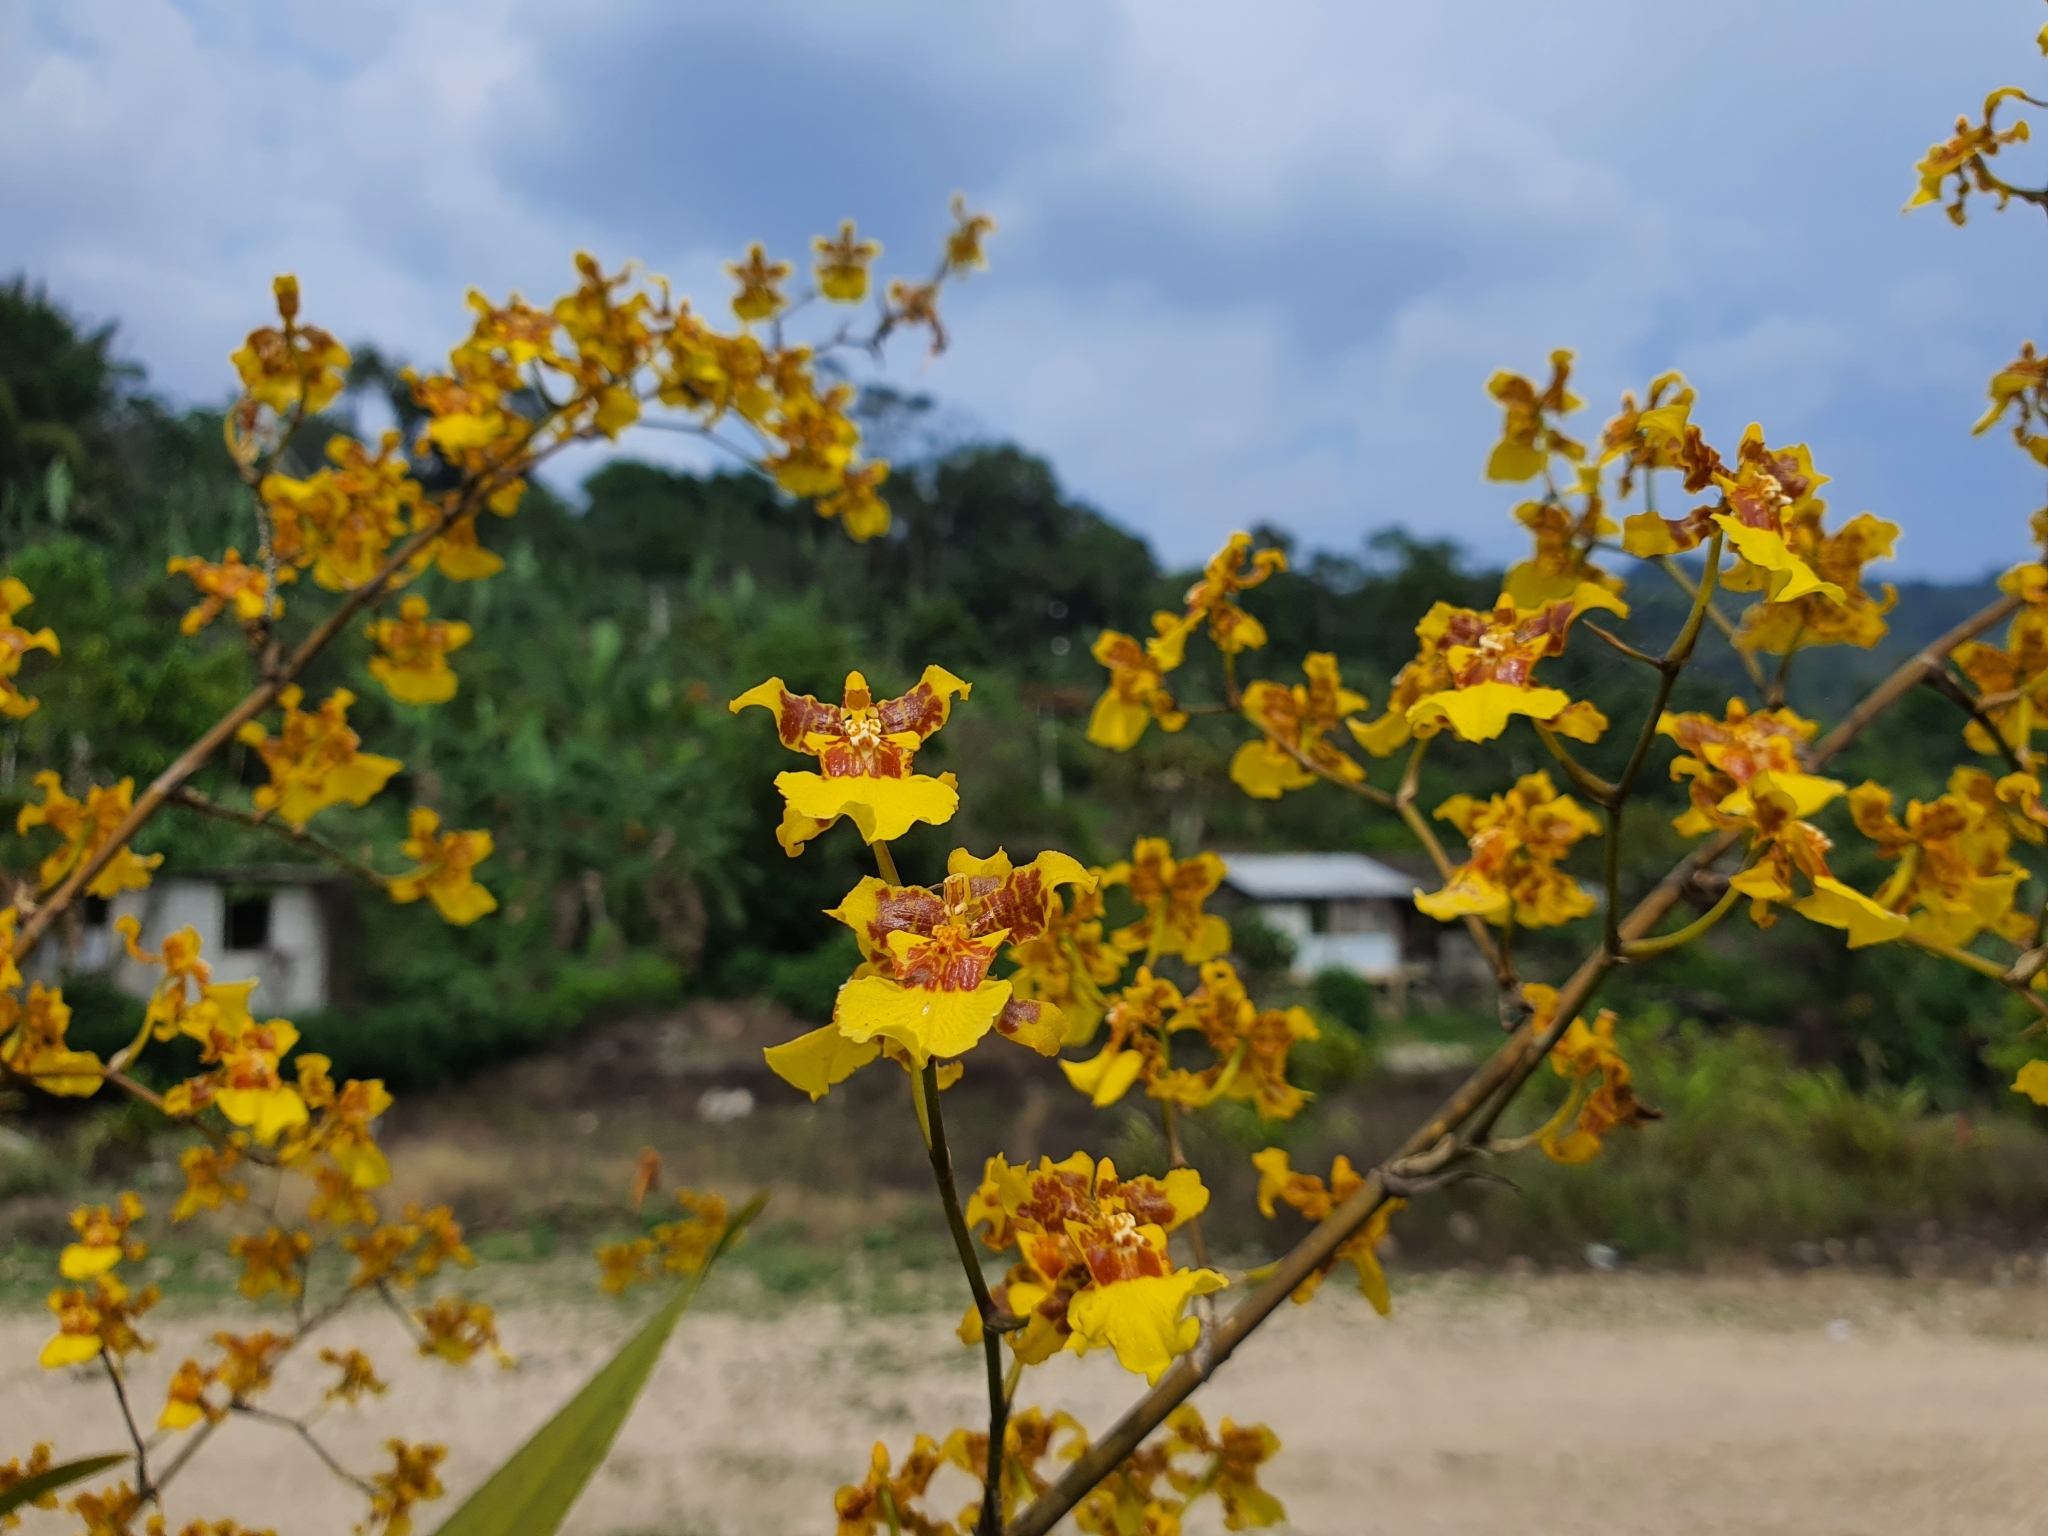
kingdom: Plantae
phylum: Tracheophyta
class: Liliopsida
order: Asparagales
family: Orchidaceae
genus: Oncidium
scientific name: Oncidium sphacelatum
